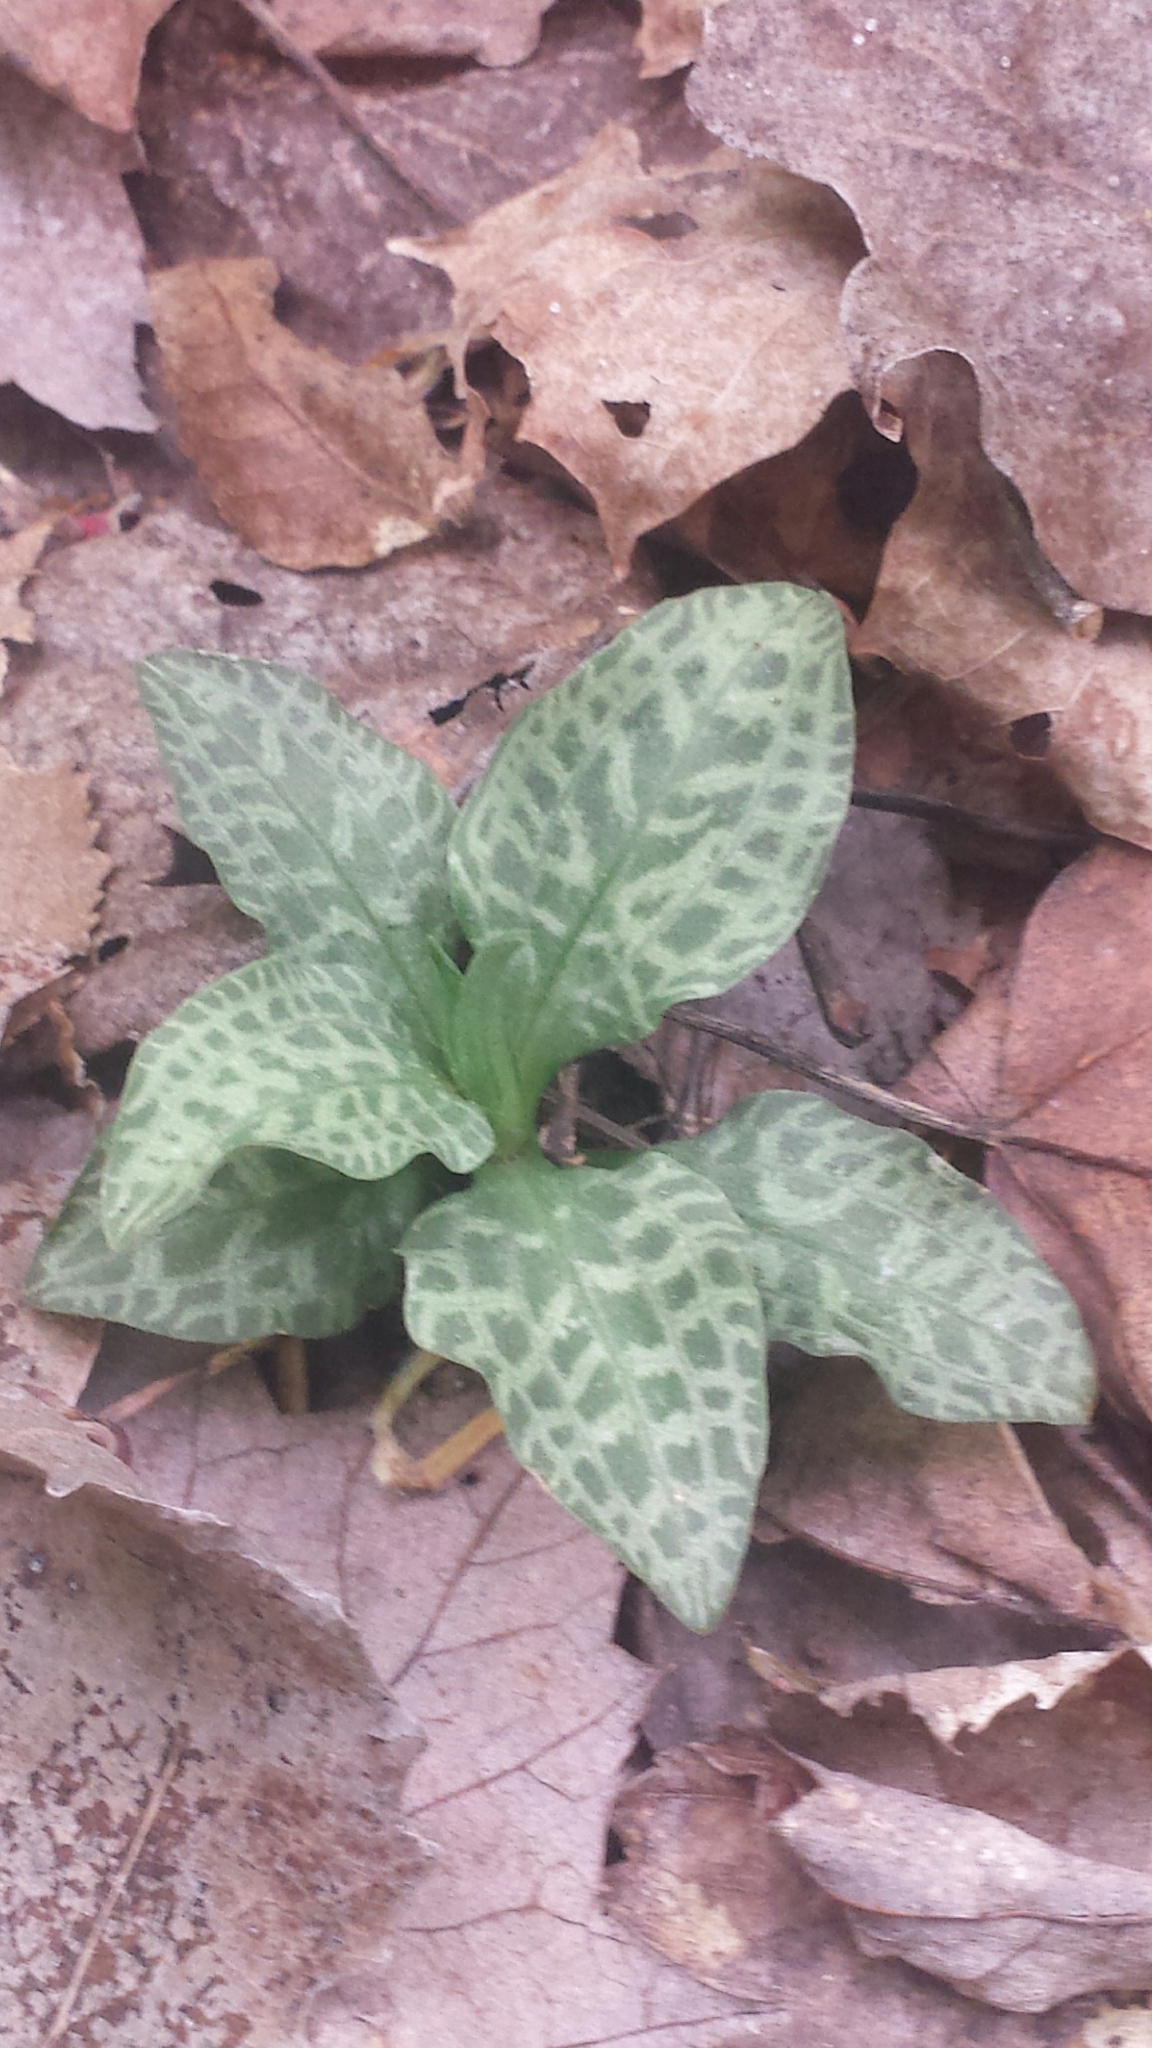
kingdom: Plantae
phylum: Tracheophyta
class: Liliopsida
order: Asparagales
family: Orchidaceae
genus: Goodyera
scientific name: Goodyera tesselata
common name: Checkered rattlesnake-plantain
